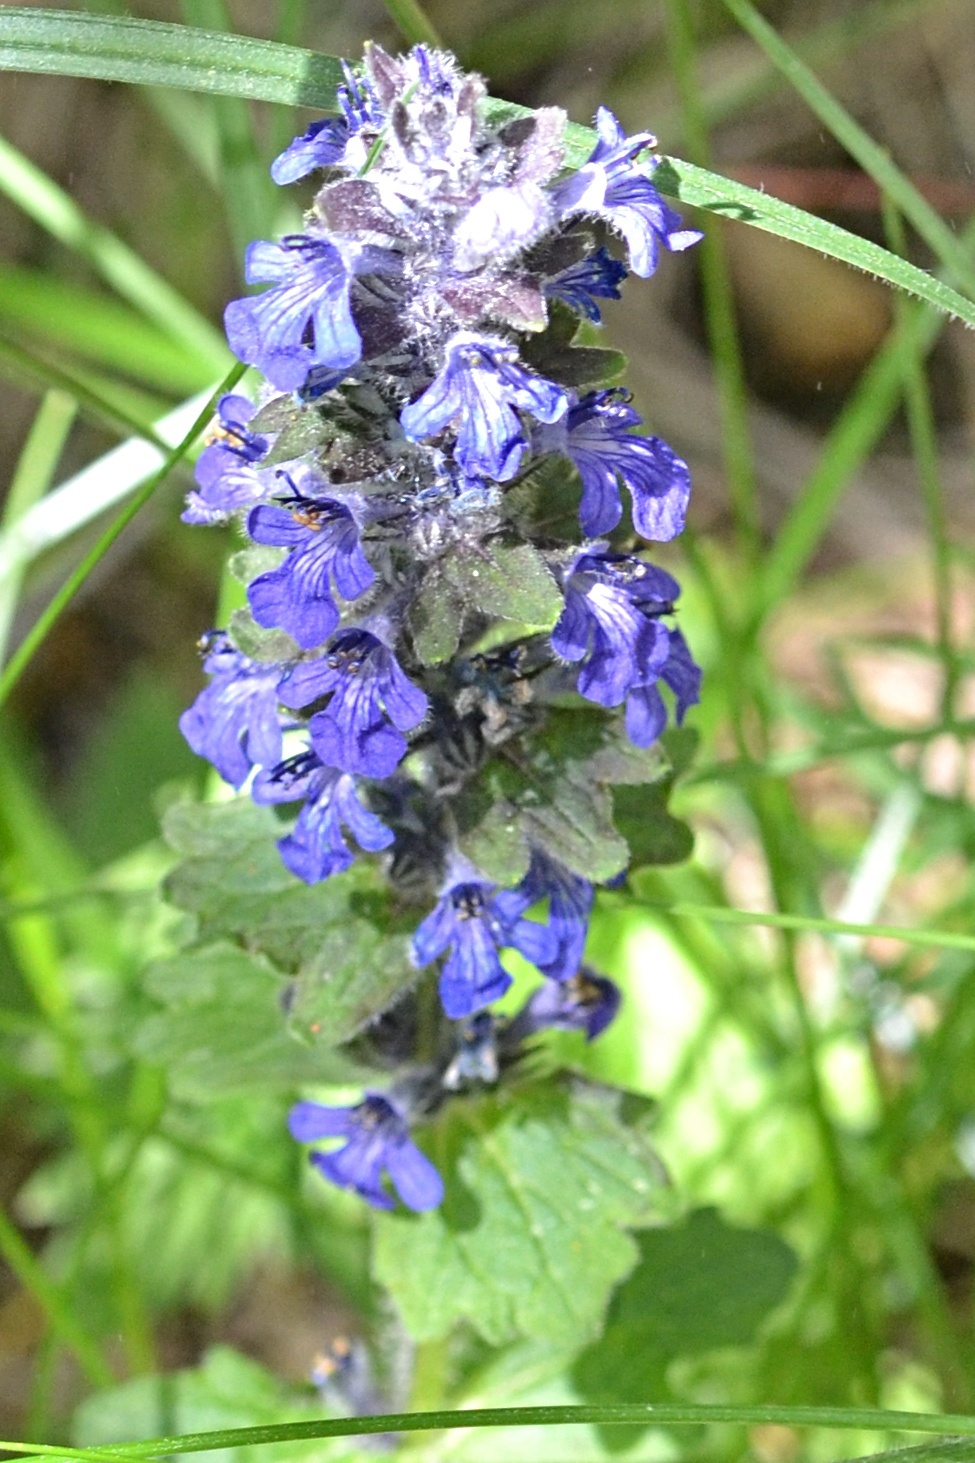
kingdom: Plantae
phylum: Tracheophyta
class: Magnoliopsida
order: Lamiales
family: Lamiaceae
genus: Ajuga
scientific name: Ajuga genevensis
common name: Blue bugle
